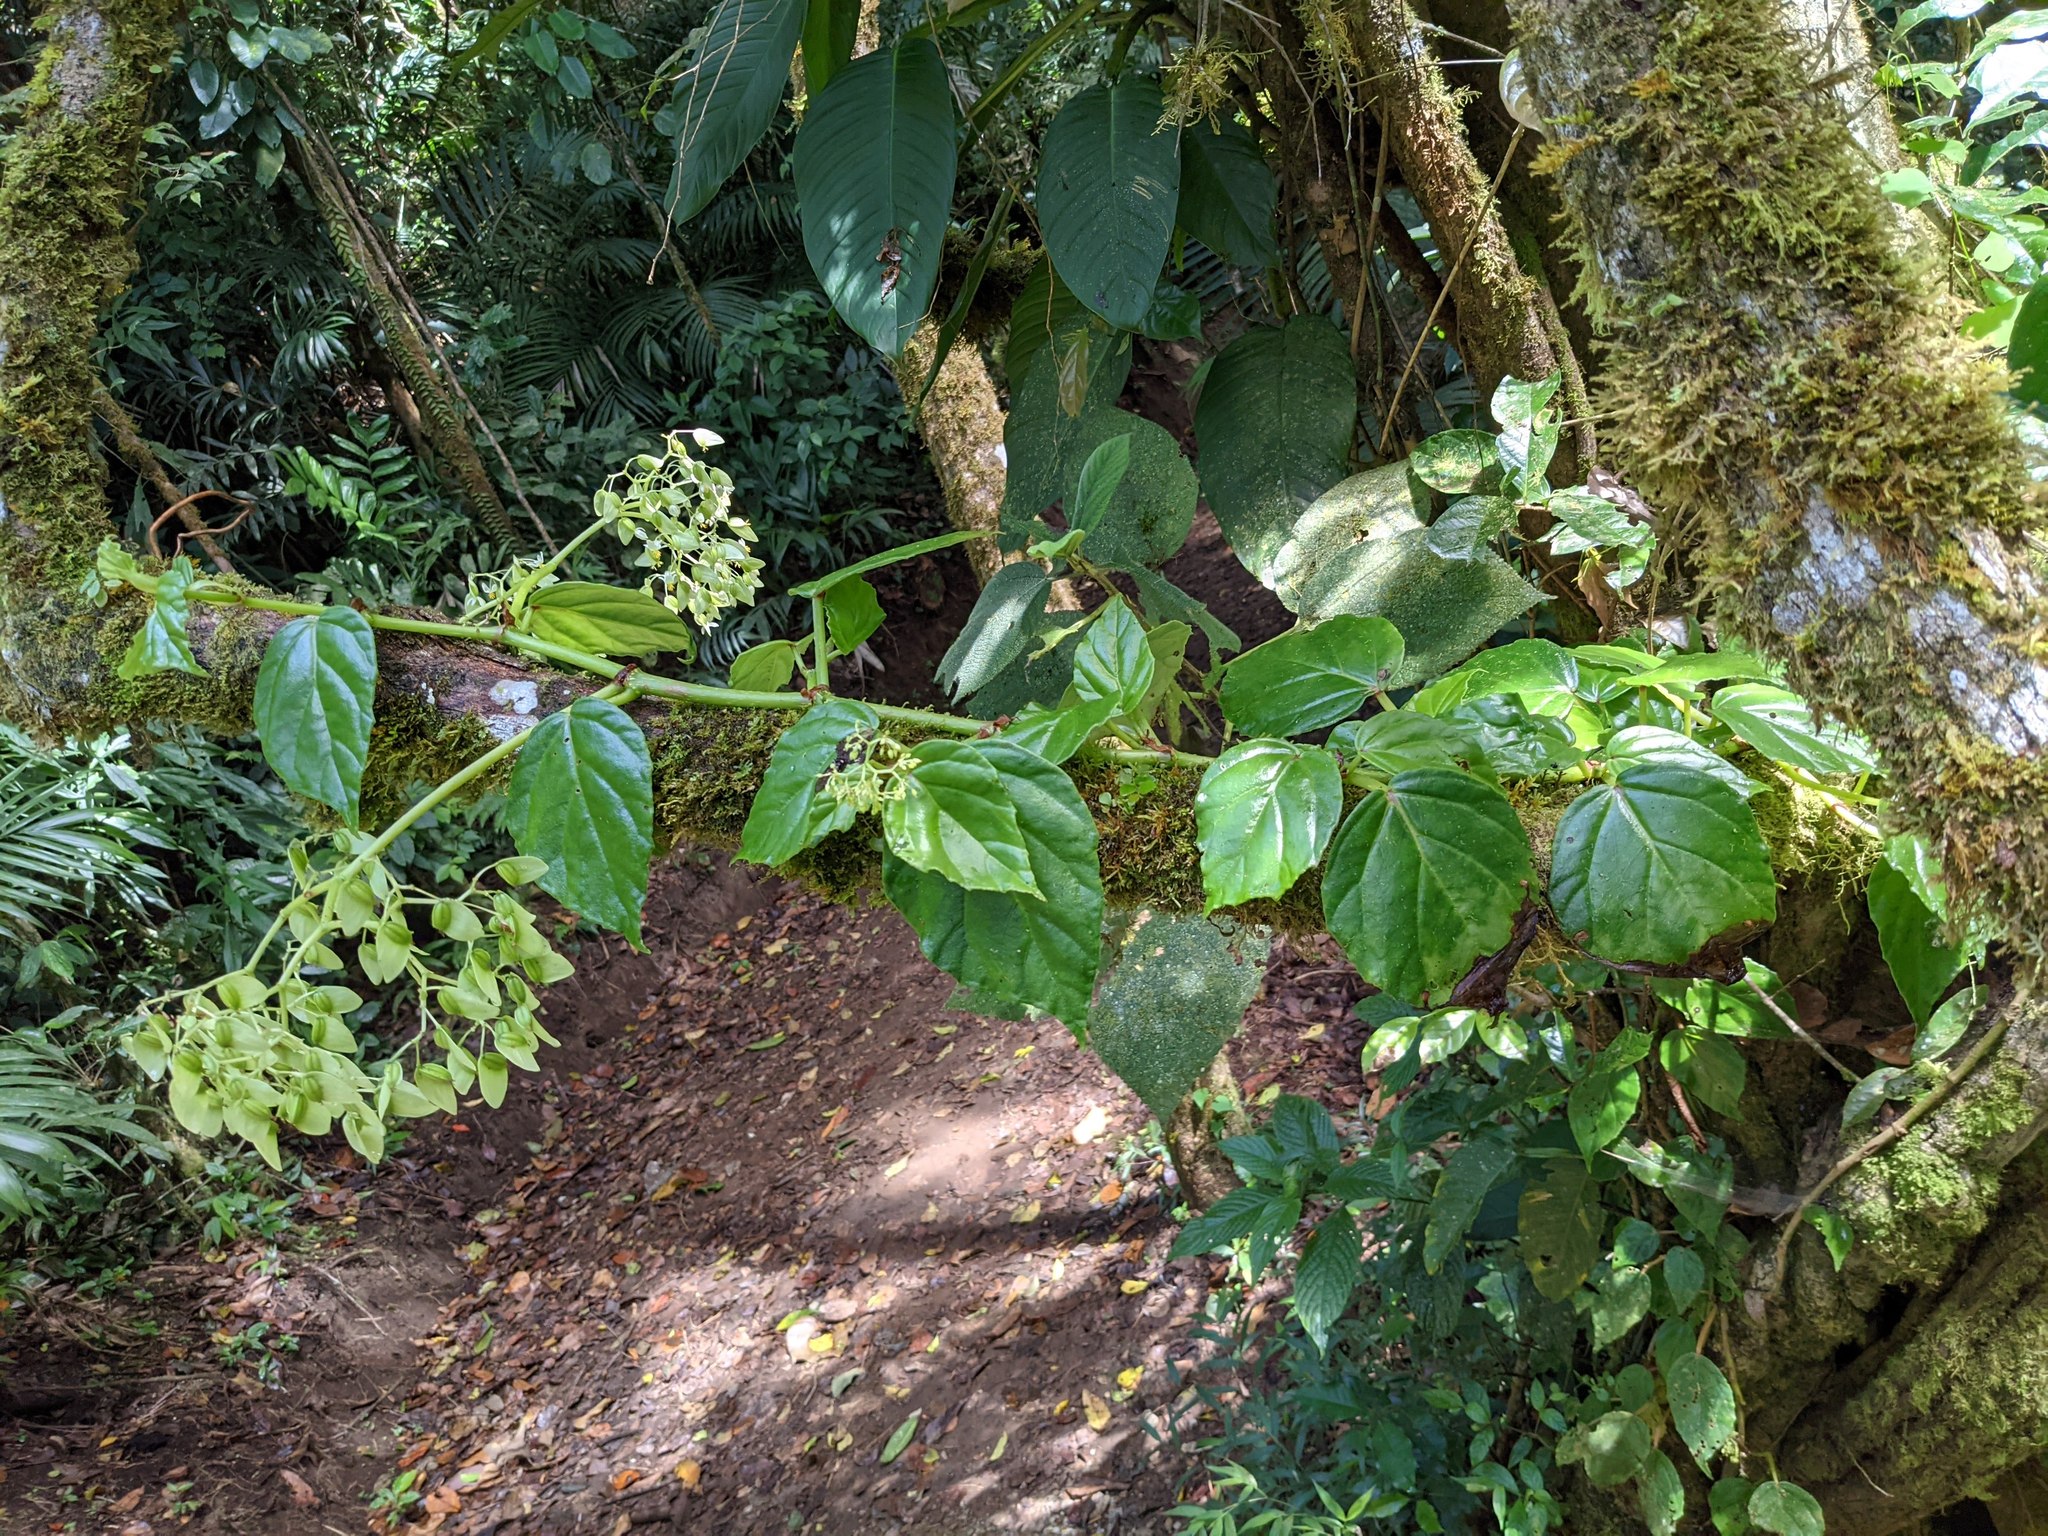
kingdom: Plantae
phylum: Tracheophyta
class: Magnoliopsida
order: Cucurbitales
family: Begoniaceae
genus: Begonia
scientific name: Begonia glabra
